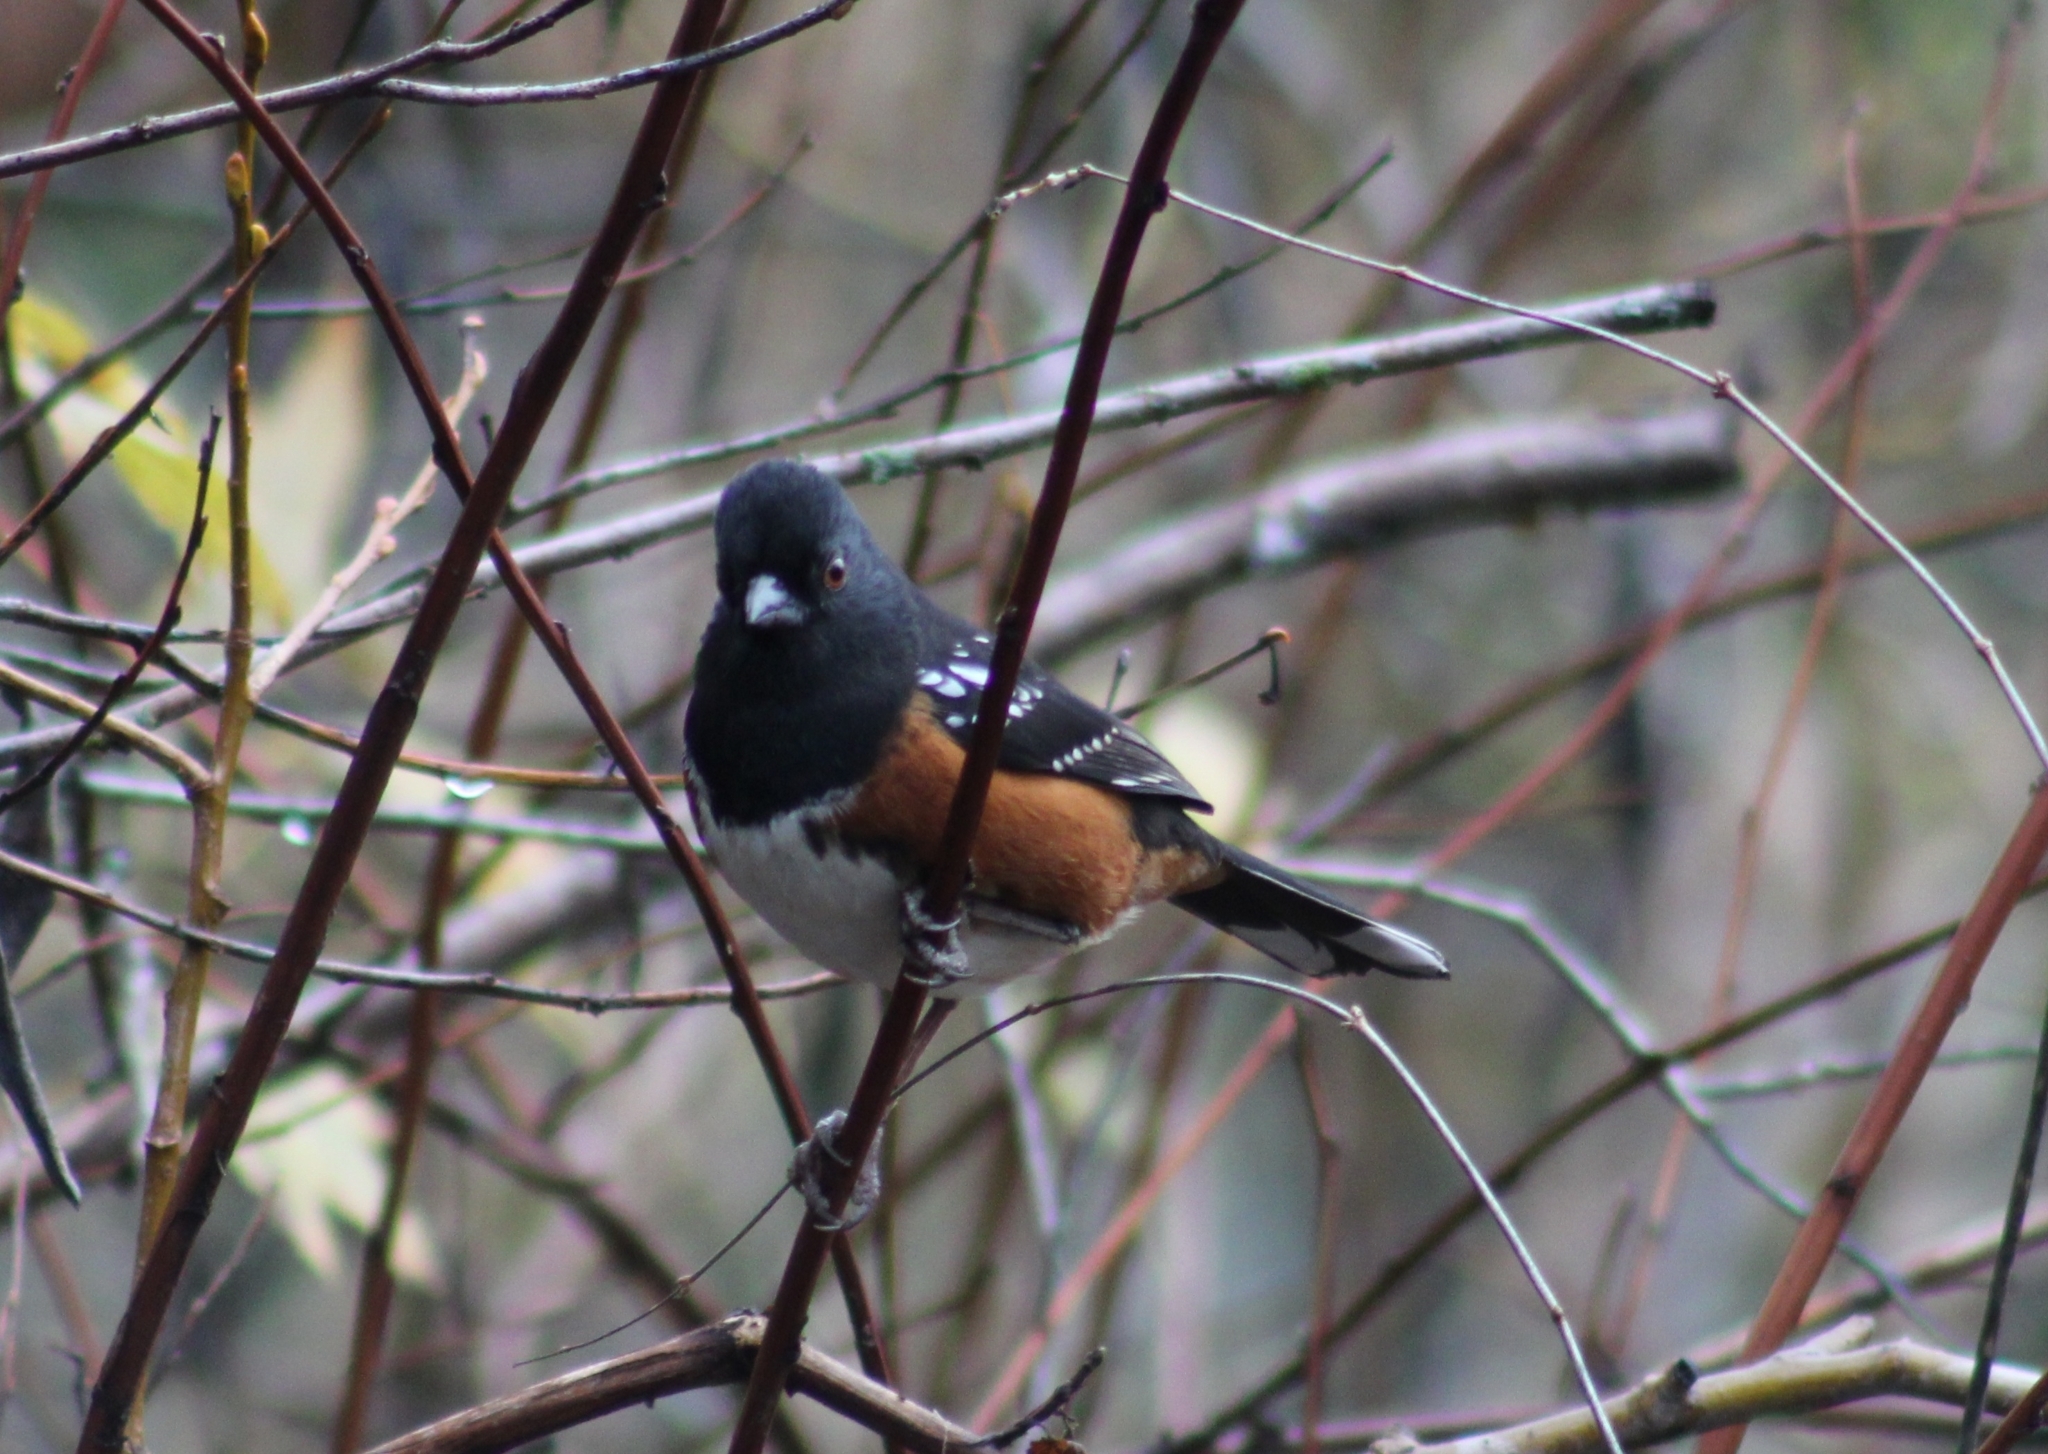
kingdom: Animalia
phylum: Chordata
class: Aves
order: Passeriformes
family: Passerellidae
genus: Pipilo
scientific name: Pipilo maculatus
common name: Spotted towhee
